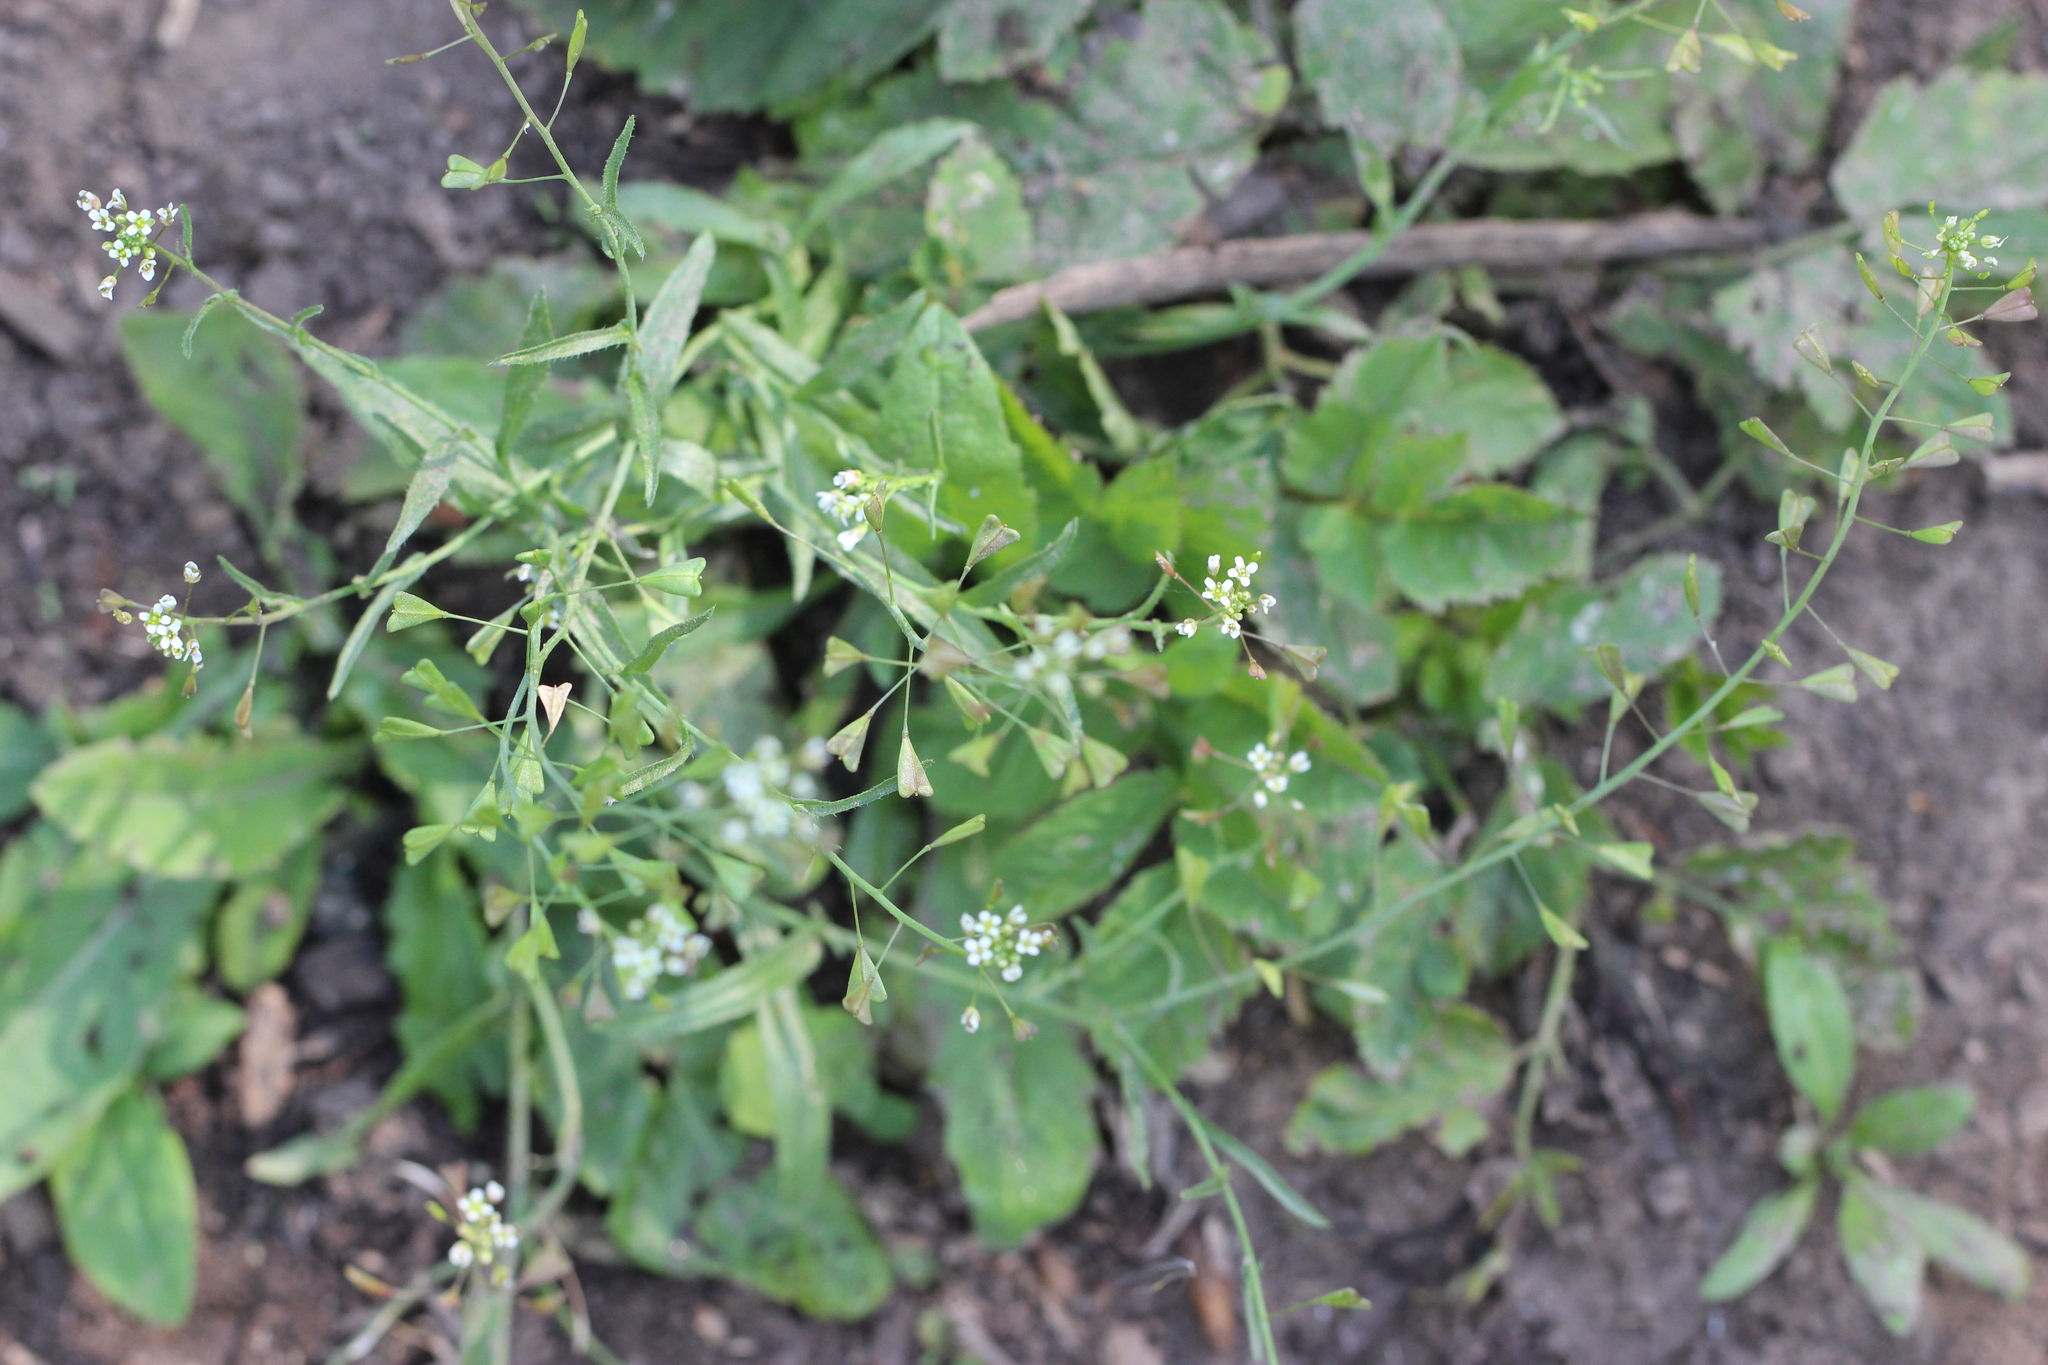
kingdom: Plantae
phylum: Tracheophyta
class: Magnoliopsida
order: Brassicales
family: Brassicaceae
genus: Capsella
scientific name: Capsella bursa-pastoris
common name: Shepherd's purse
